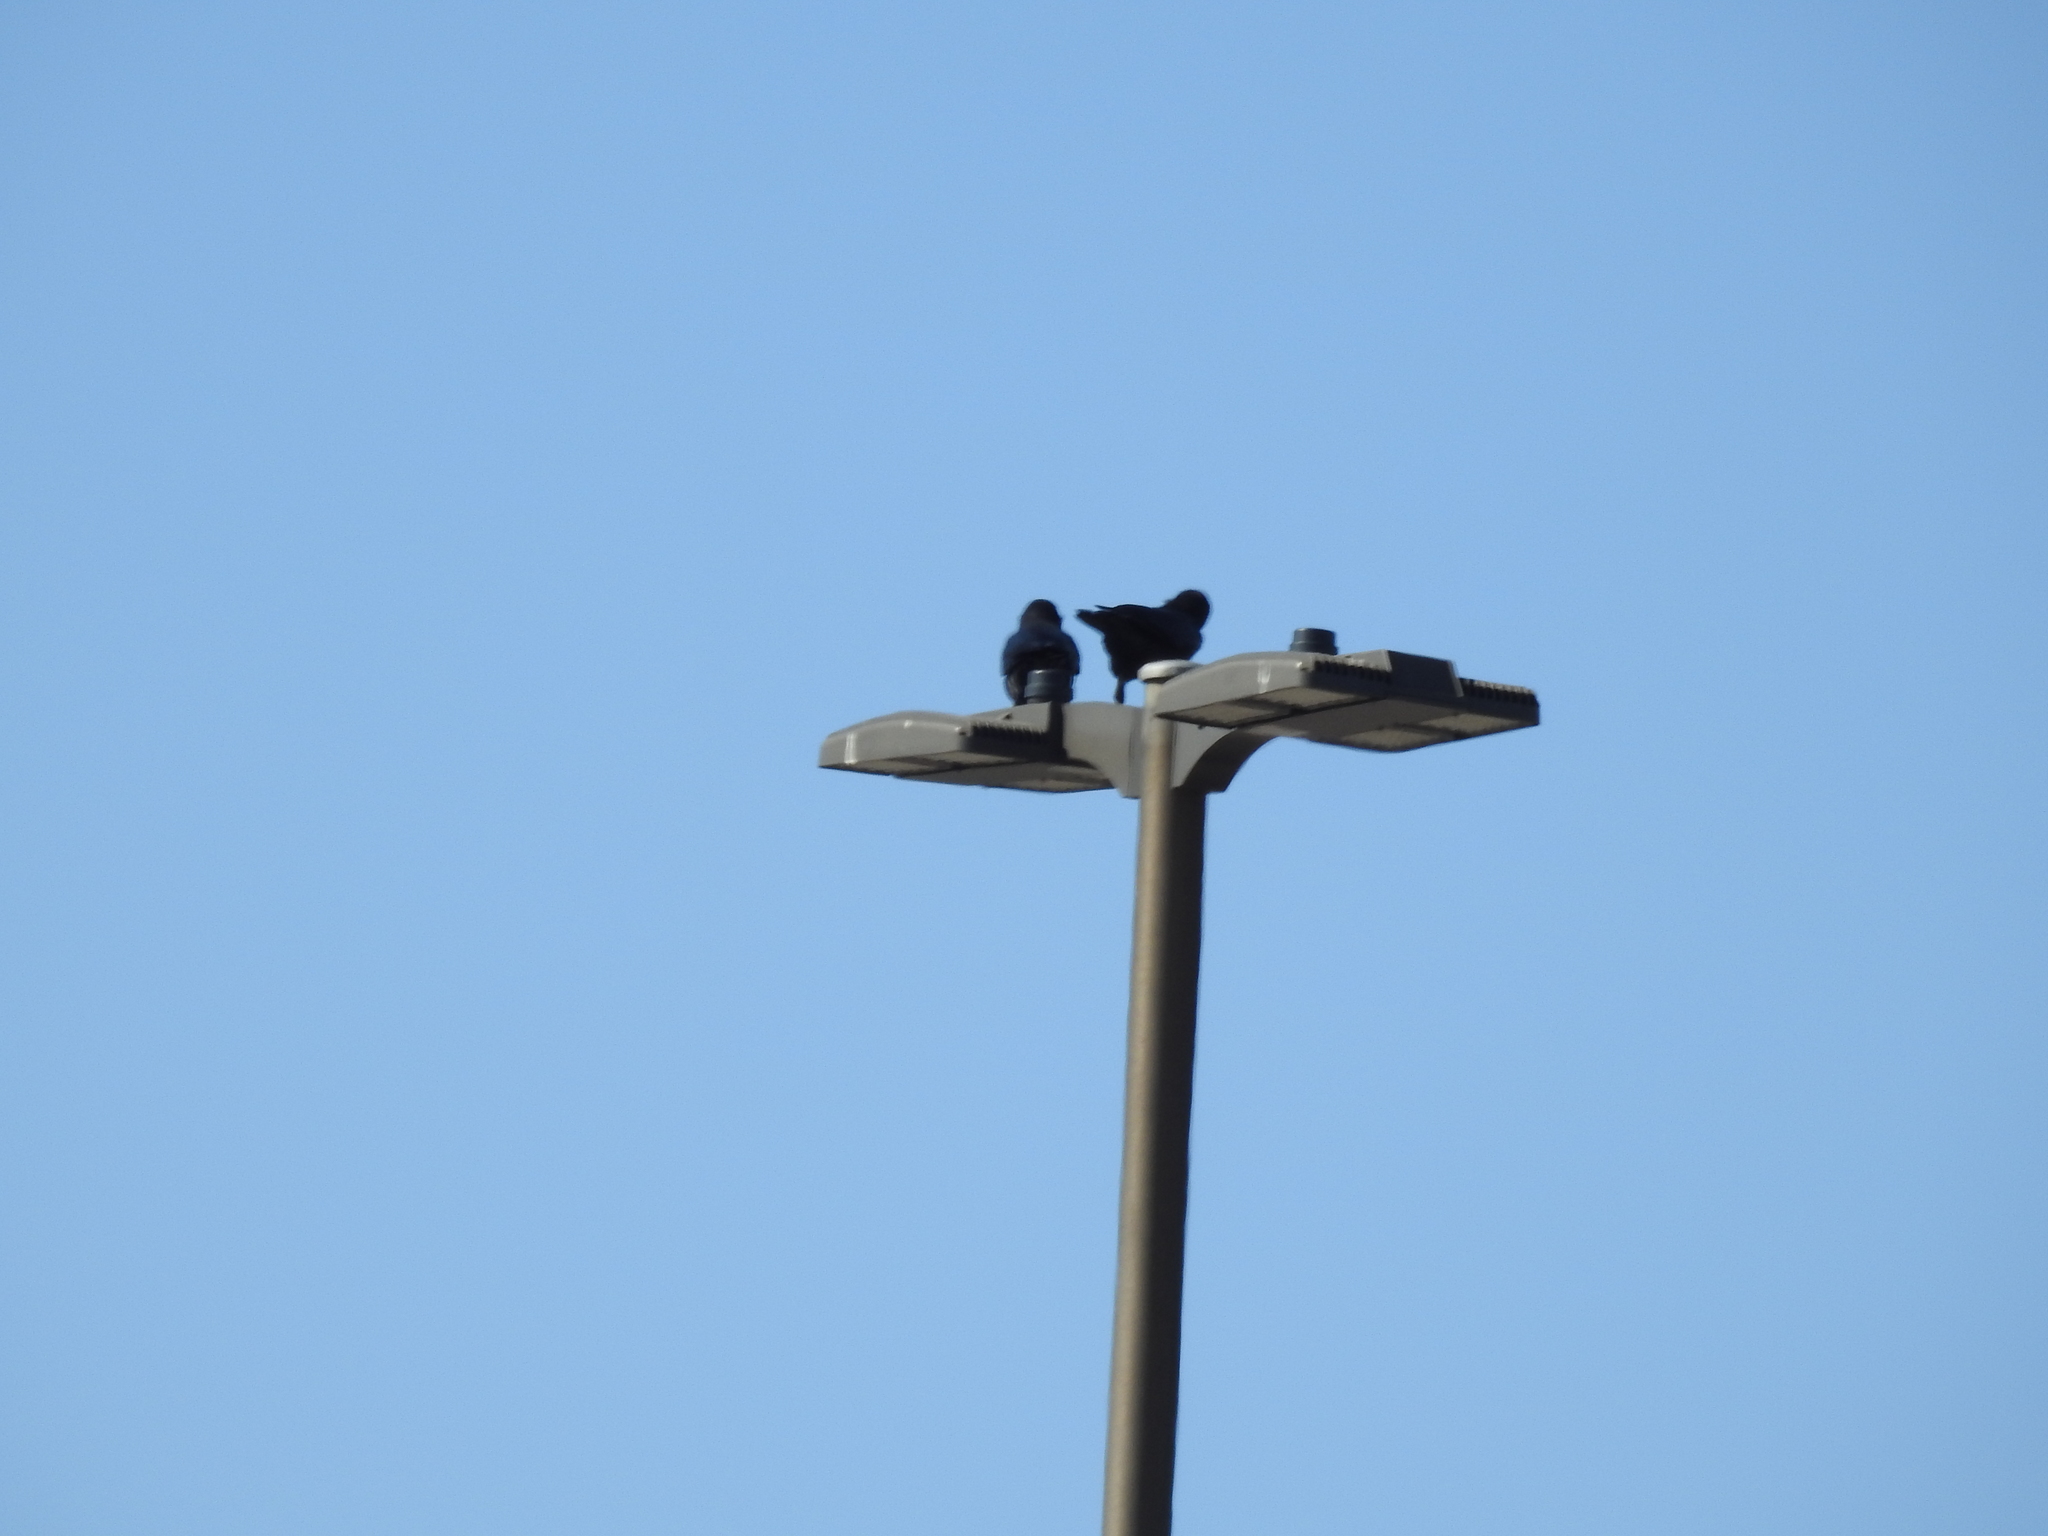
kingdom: Animalia
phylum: Chordata
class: Aves
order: Passeriformes
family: Corvidae
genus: Corvus
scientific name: Corvus brachyrhynchos
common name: American crow
